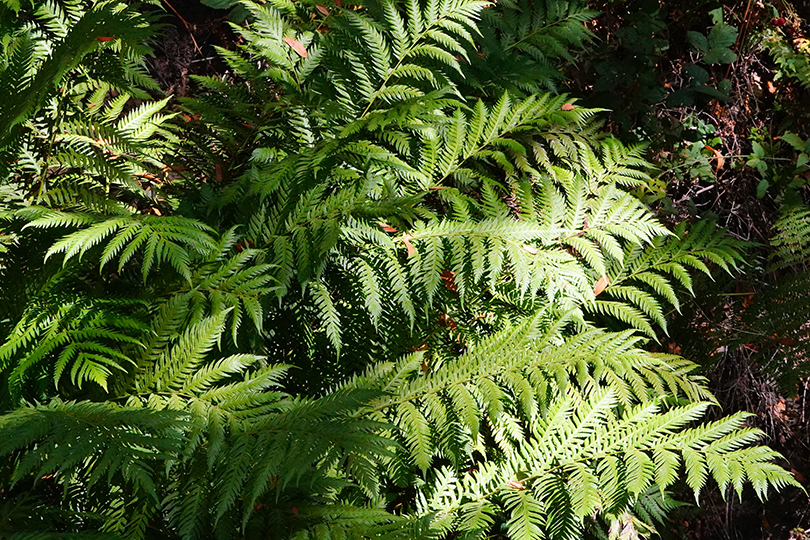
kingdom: Plantae
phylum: Tracheophyta
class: Polypodiopsida
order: Polypodiales
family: Blechnaceae
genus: Woodwardia
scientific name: Woodwardia fimbriata
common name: Giant chain fern
